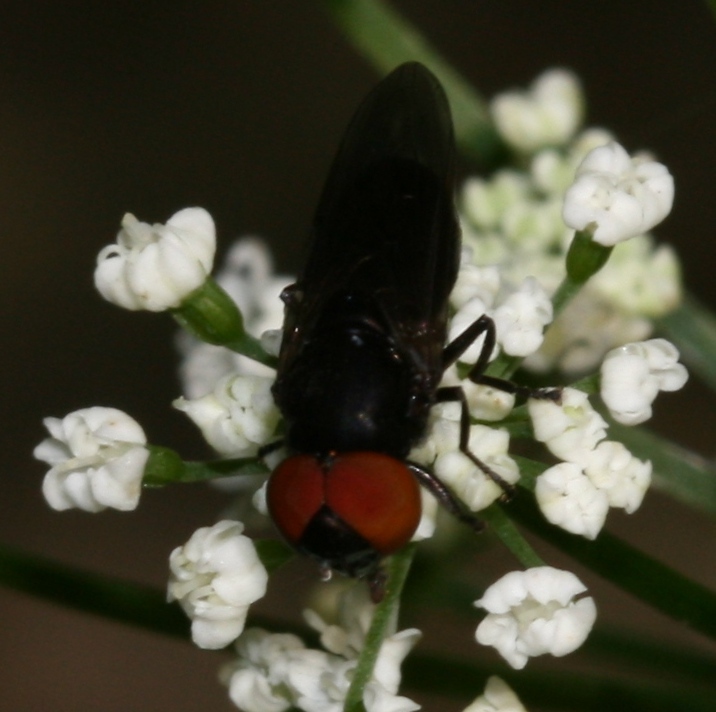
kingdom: Animalia
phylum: Arthropoda
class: Insecta
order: Diptera
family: Syrphidae
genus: Chrysogaster
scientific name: Chrysogaster solstitialis
